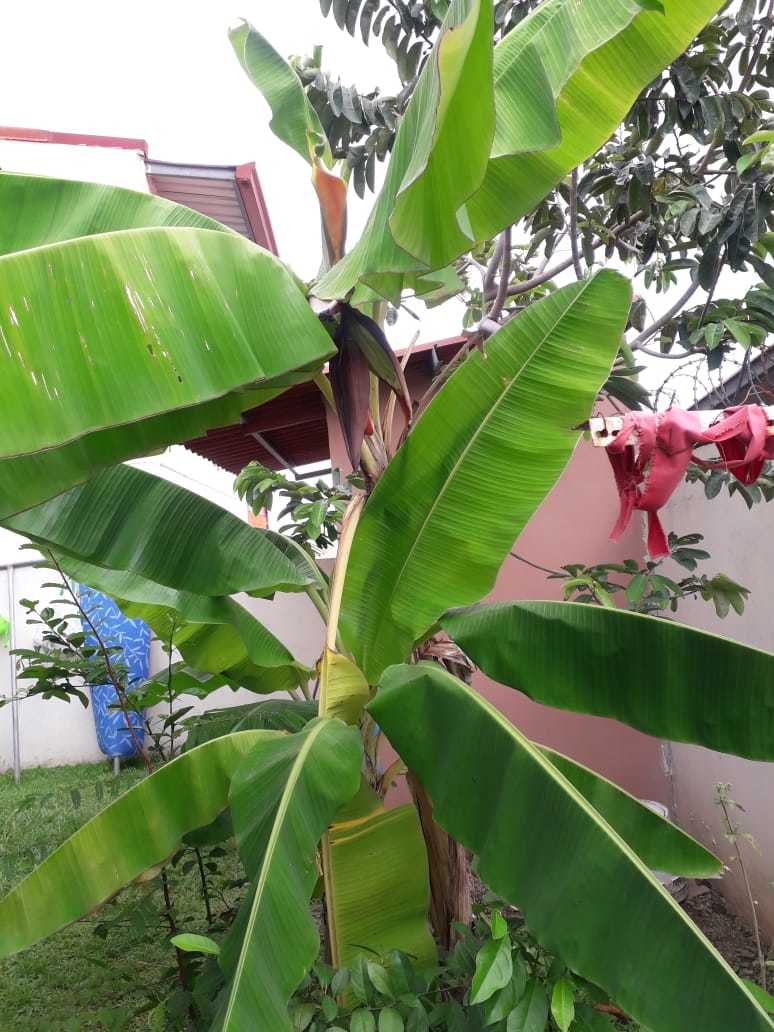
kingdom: Plantae
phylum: Tracheophyta
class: Liliopsida
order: Zingiberales
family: Musaceae
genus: Musa
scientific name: Musa paradisiaca
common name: French plantain
